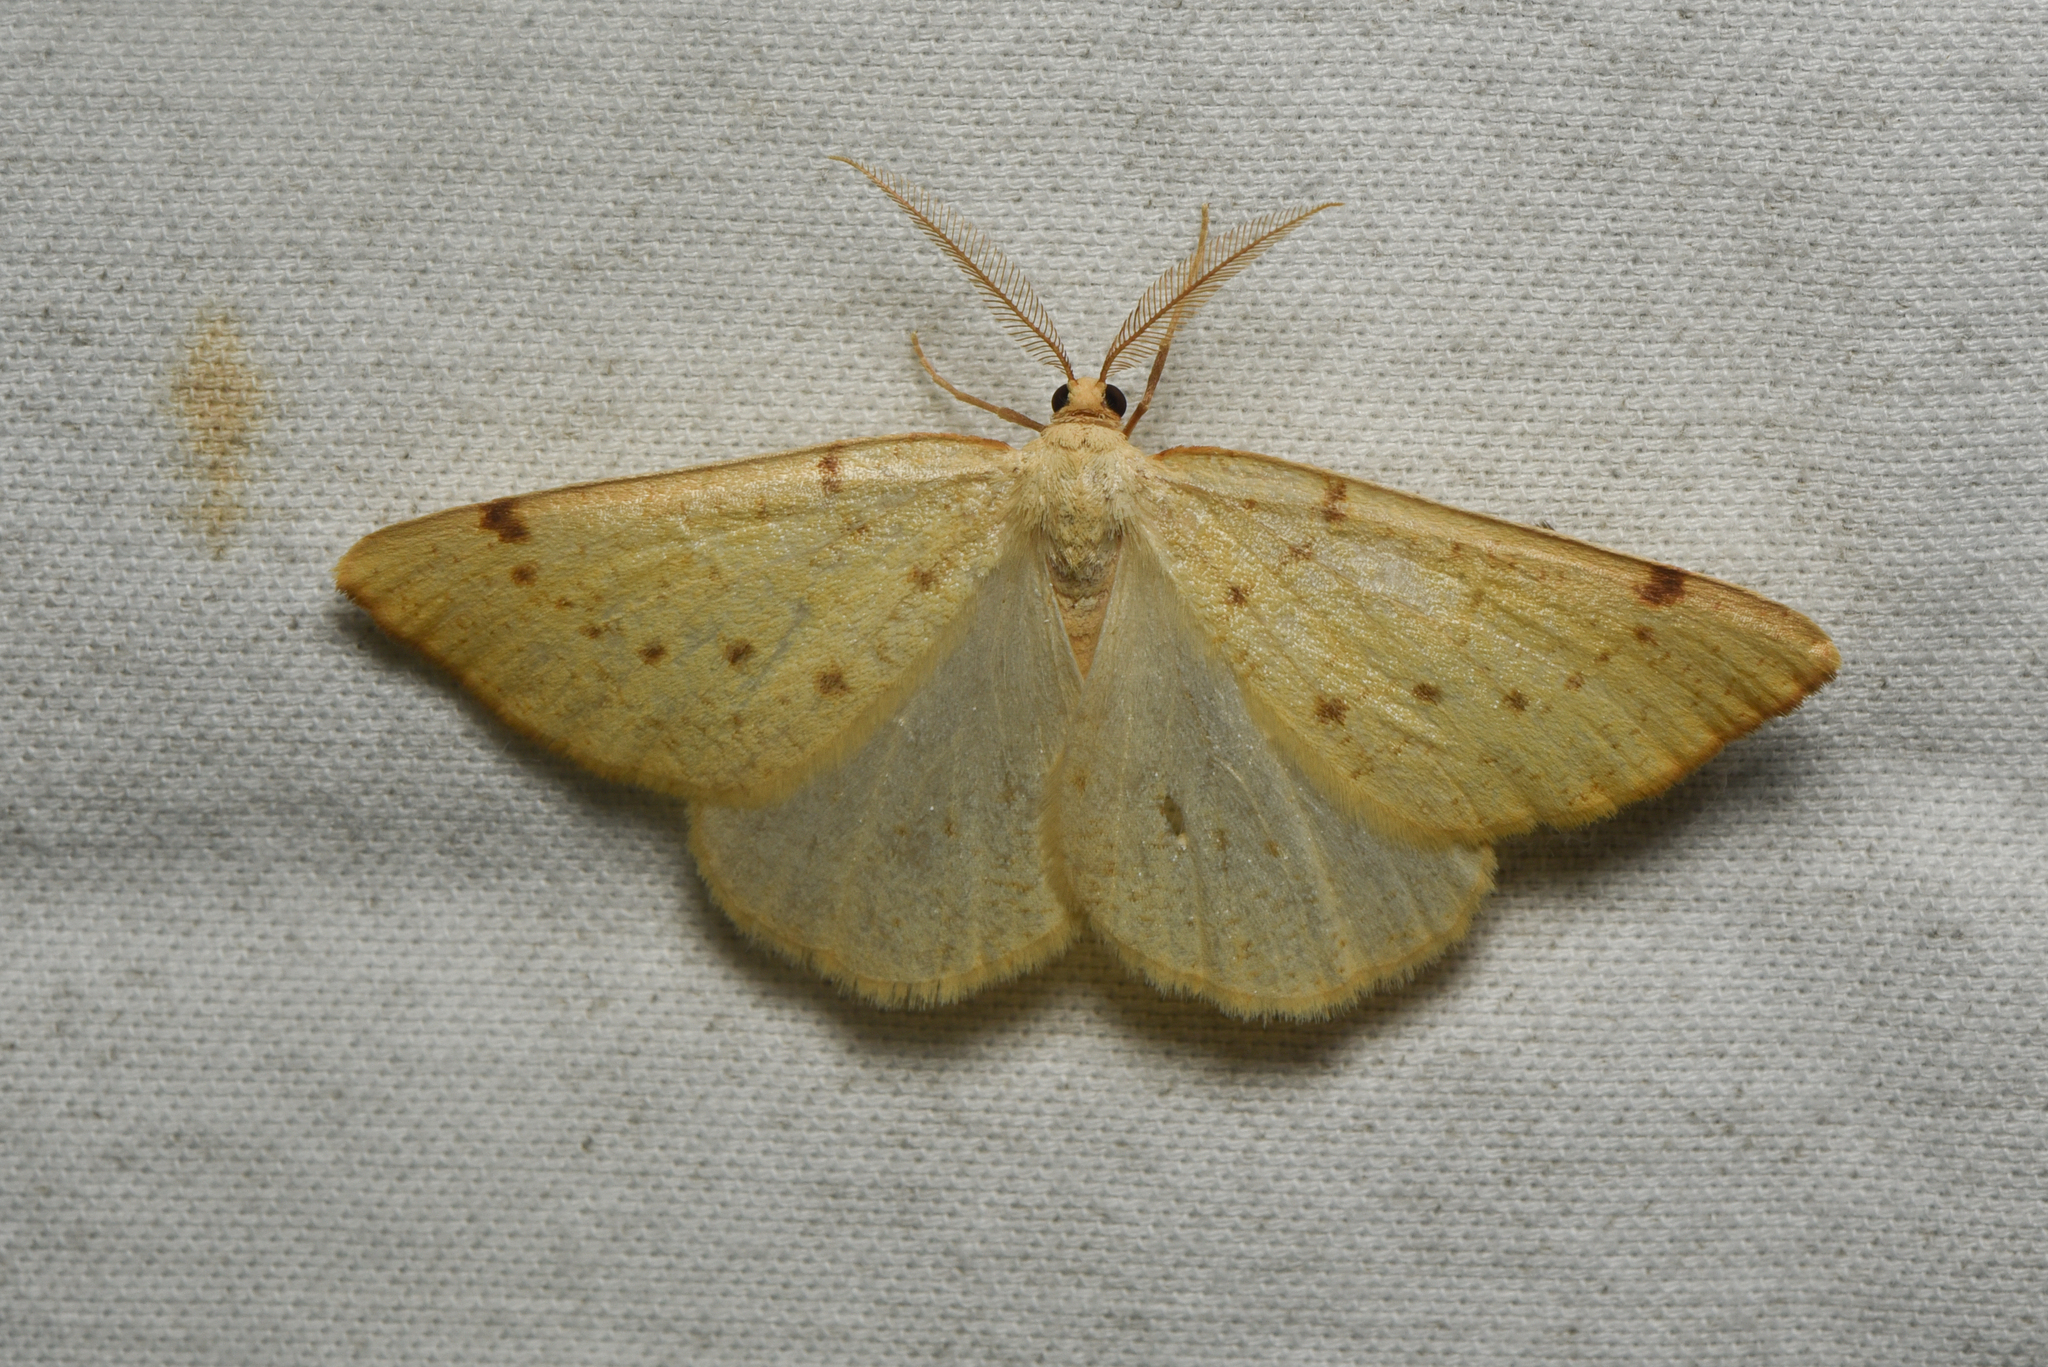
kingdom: Animalia
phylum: Arthropoda
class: Insecta
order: Lepidoptera
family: Geometridae
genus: Hesperumia
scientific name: Hesperumia sulphuraria
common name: Sulphur moth
